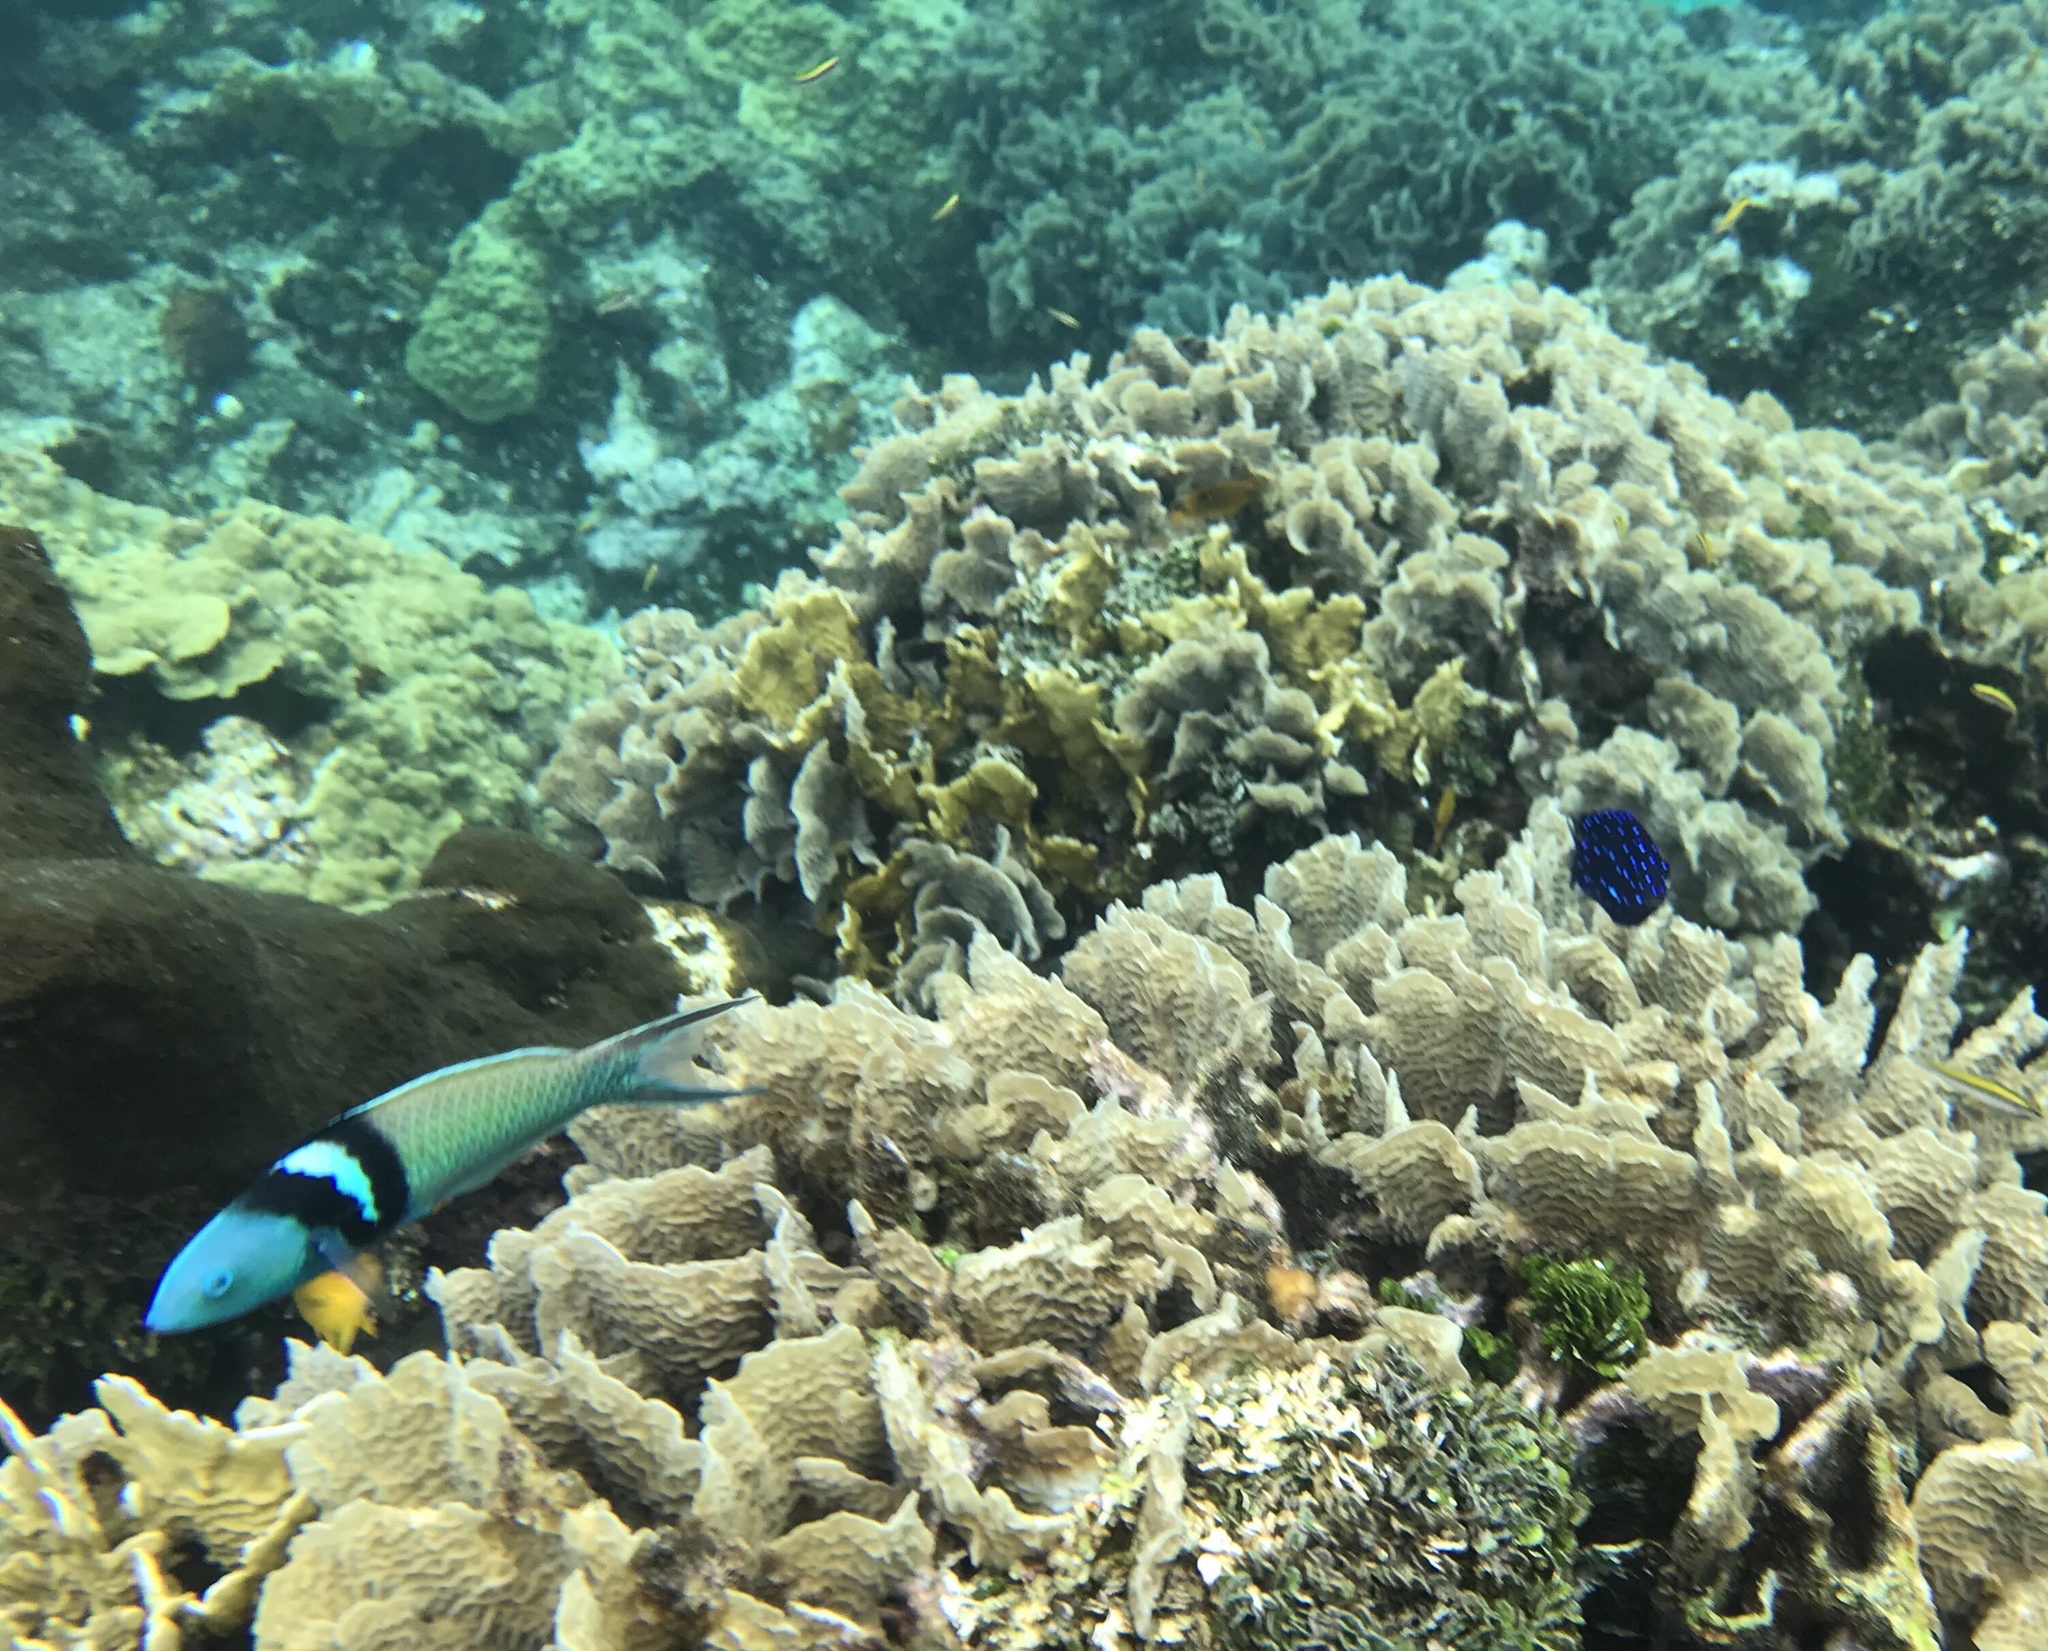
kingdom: Animalia
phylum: Chordata
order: Perciformes
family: Labridae
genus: Thalassoma
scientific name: Thalassoma bifasciatum
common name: Bluehead wrasse
